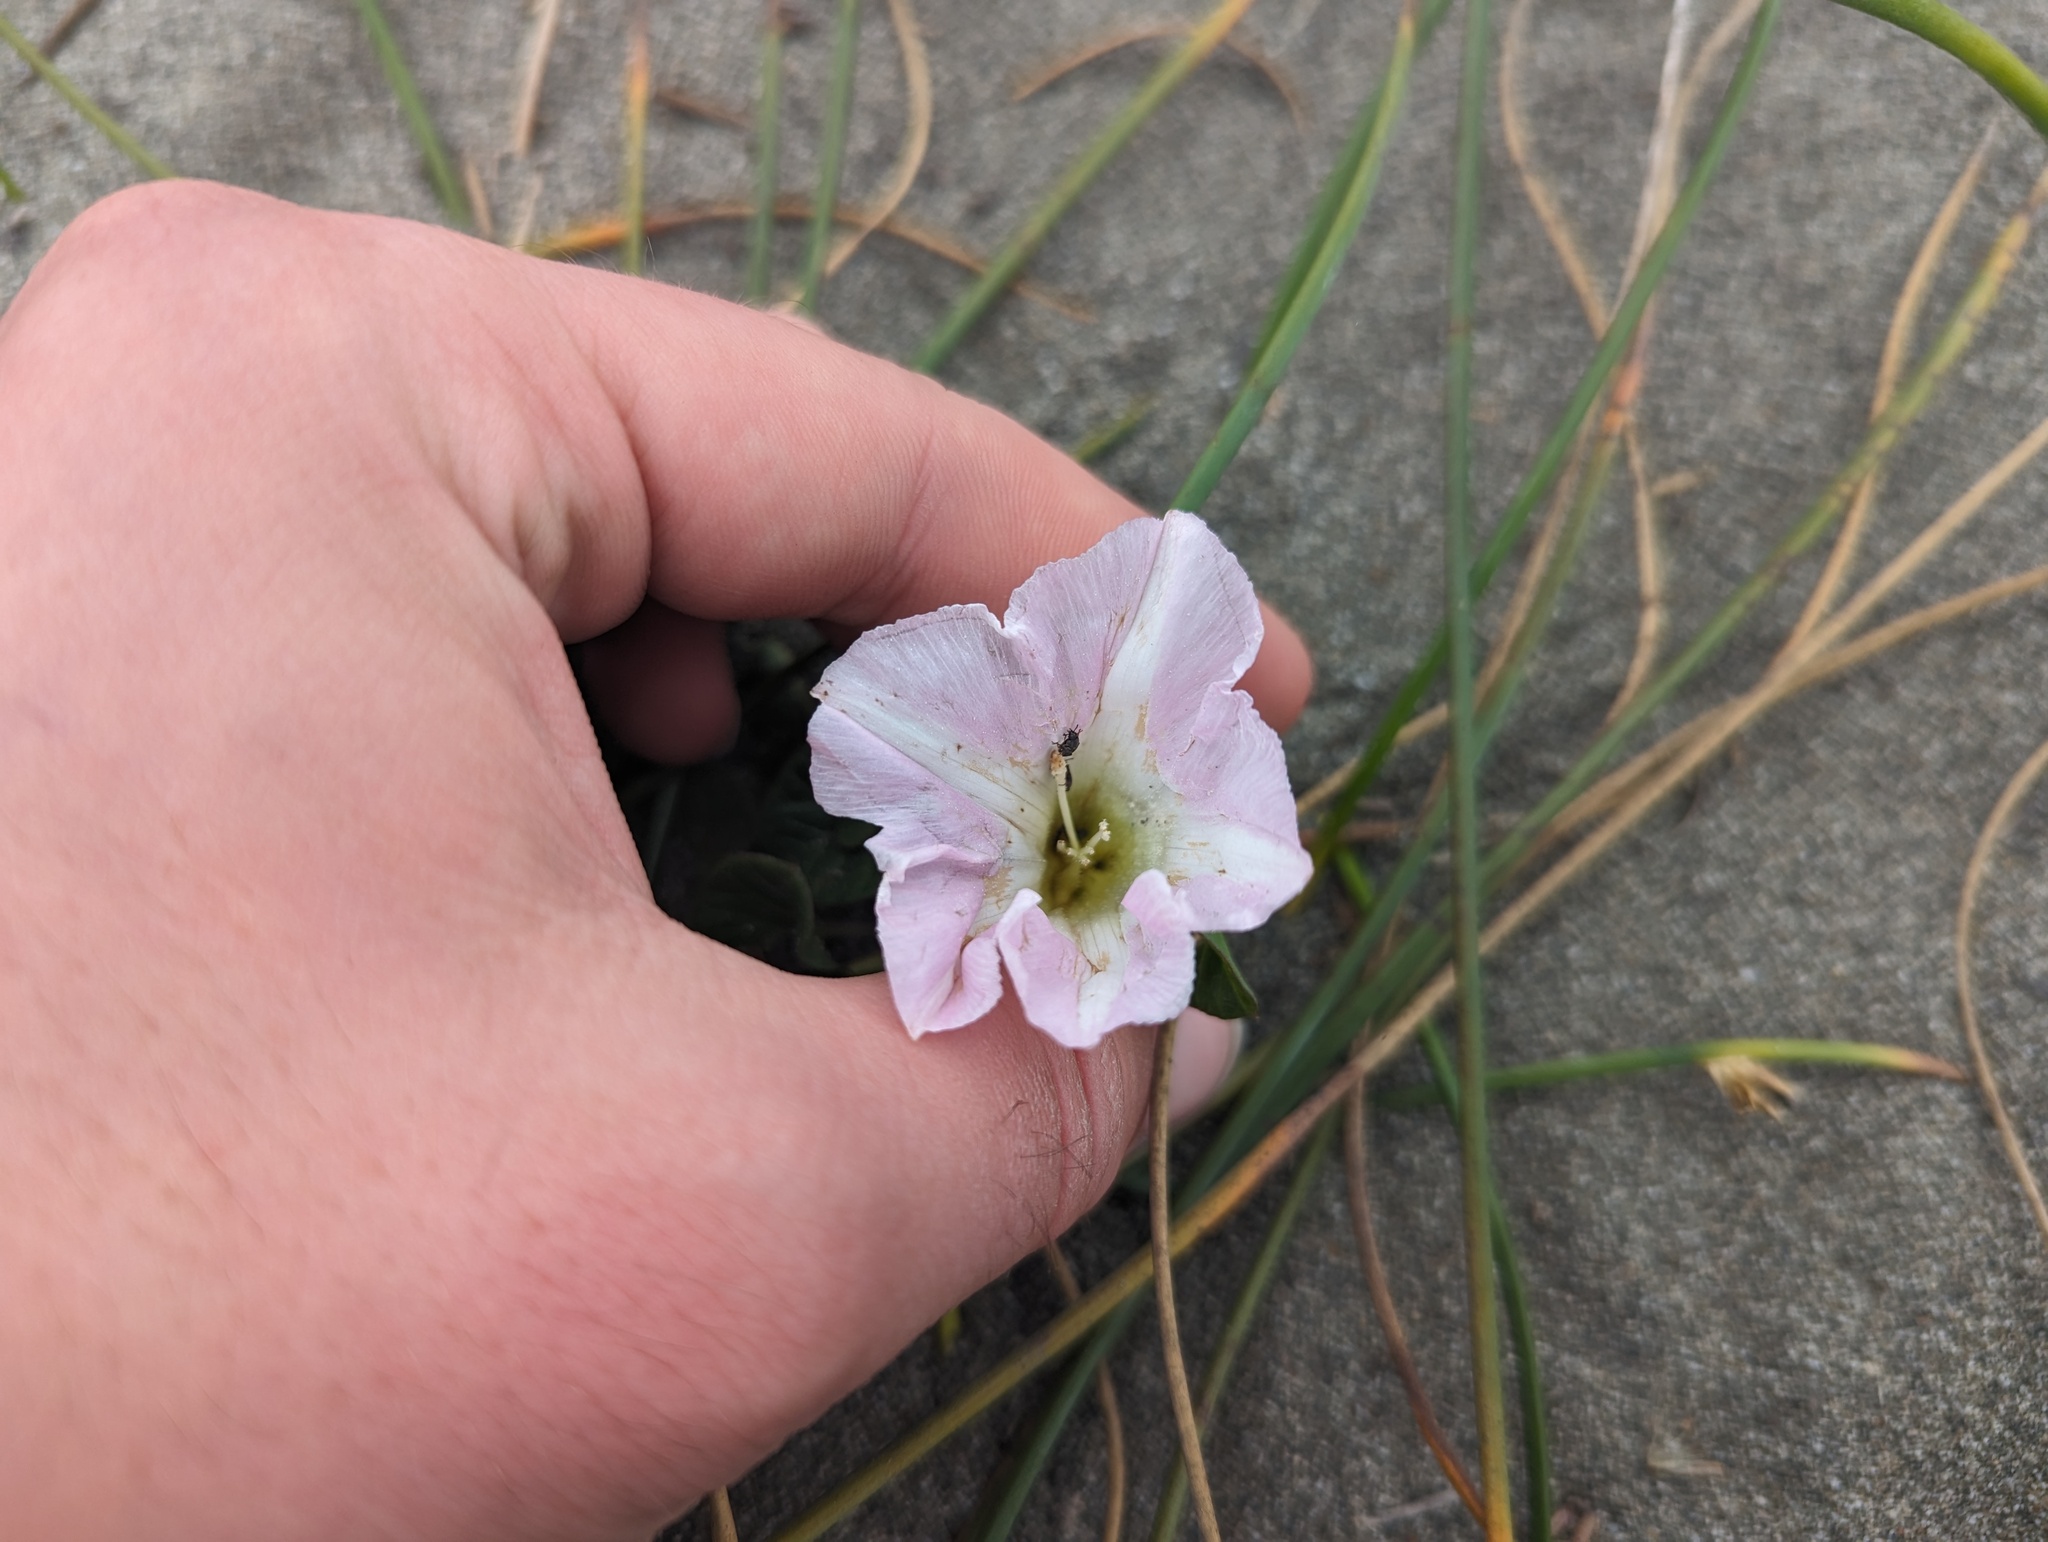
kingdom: Plantae
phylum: Tracheophyta
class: Magnoliopsida
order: Solanales
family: Convolvulaceae
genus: Calystegia
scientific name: Calystegia soldanella
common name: Sea bindweed
